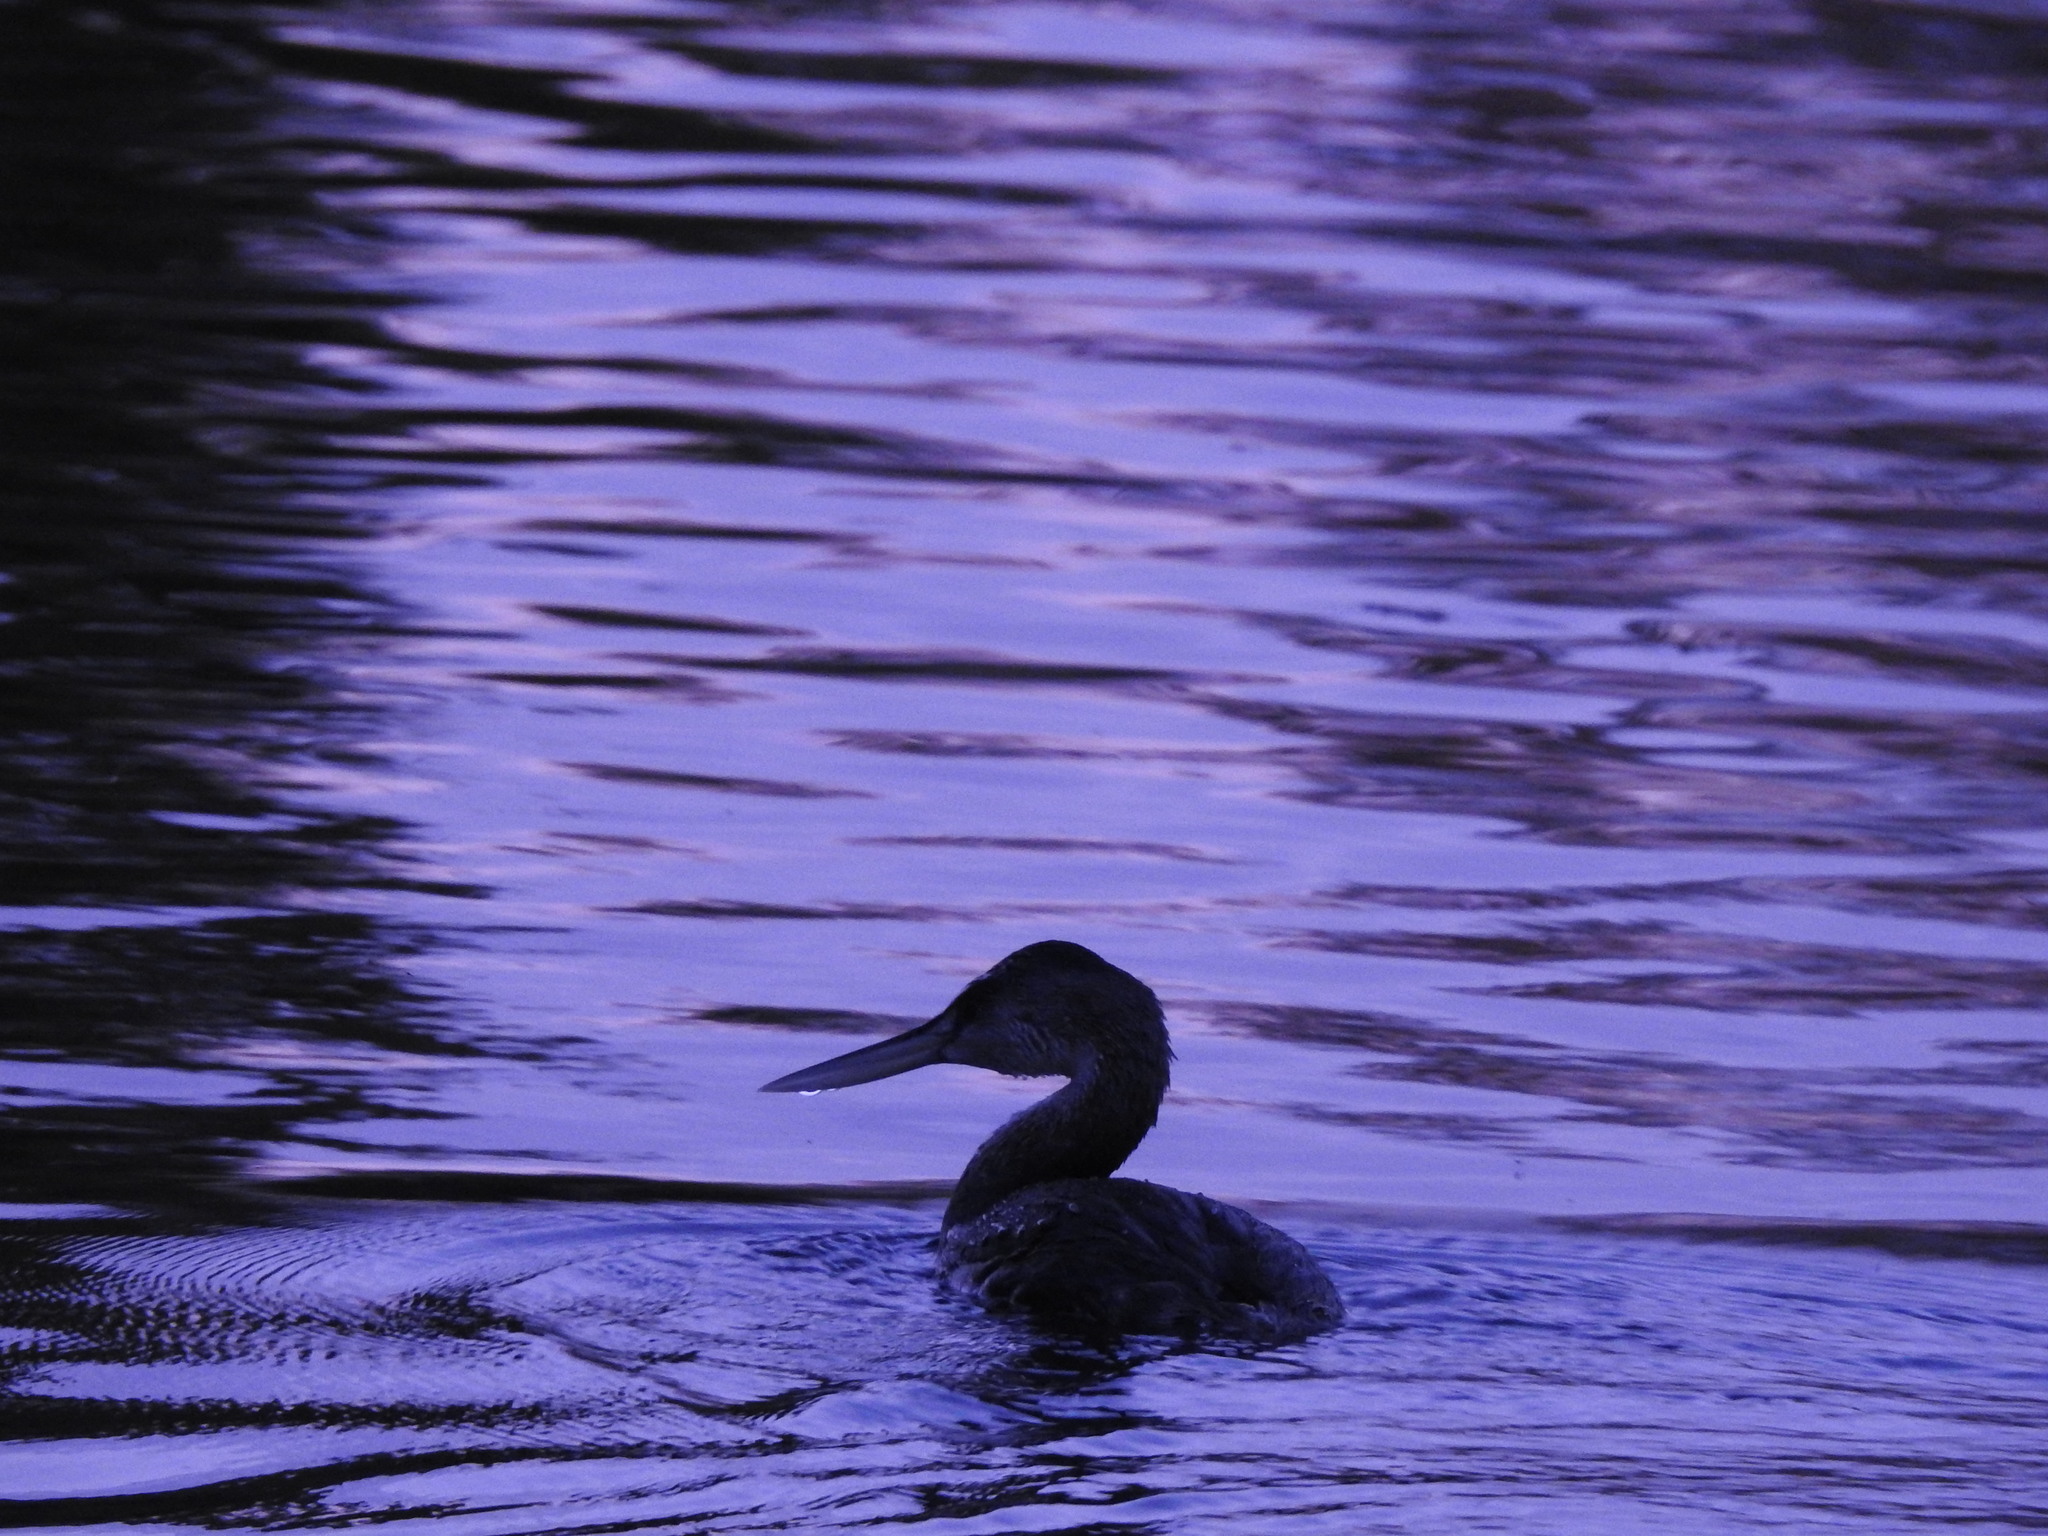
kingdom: Animalia
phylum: Chordata
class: Aves
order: Podicipediformes
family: Podicipedidae
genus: Podiceps
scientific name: Podiceps major
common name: Great grebe
